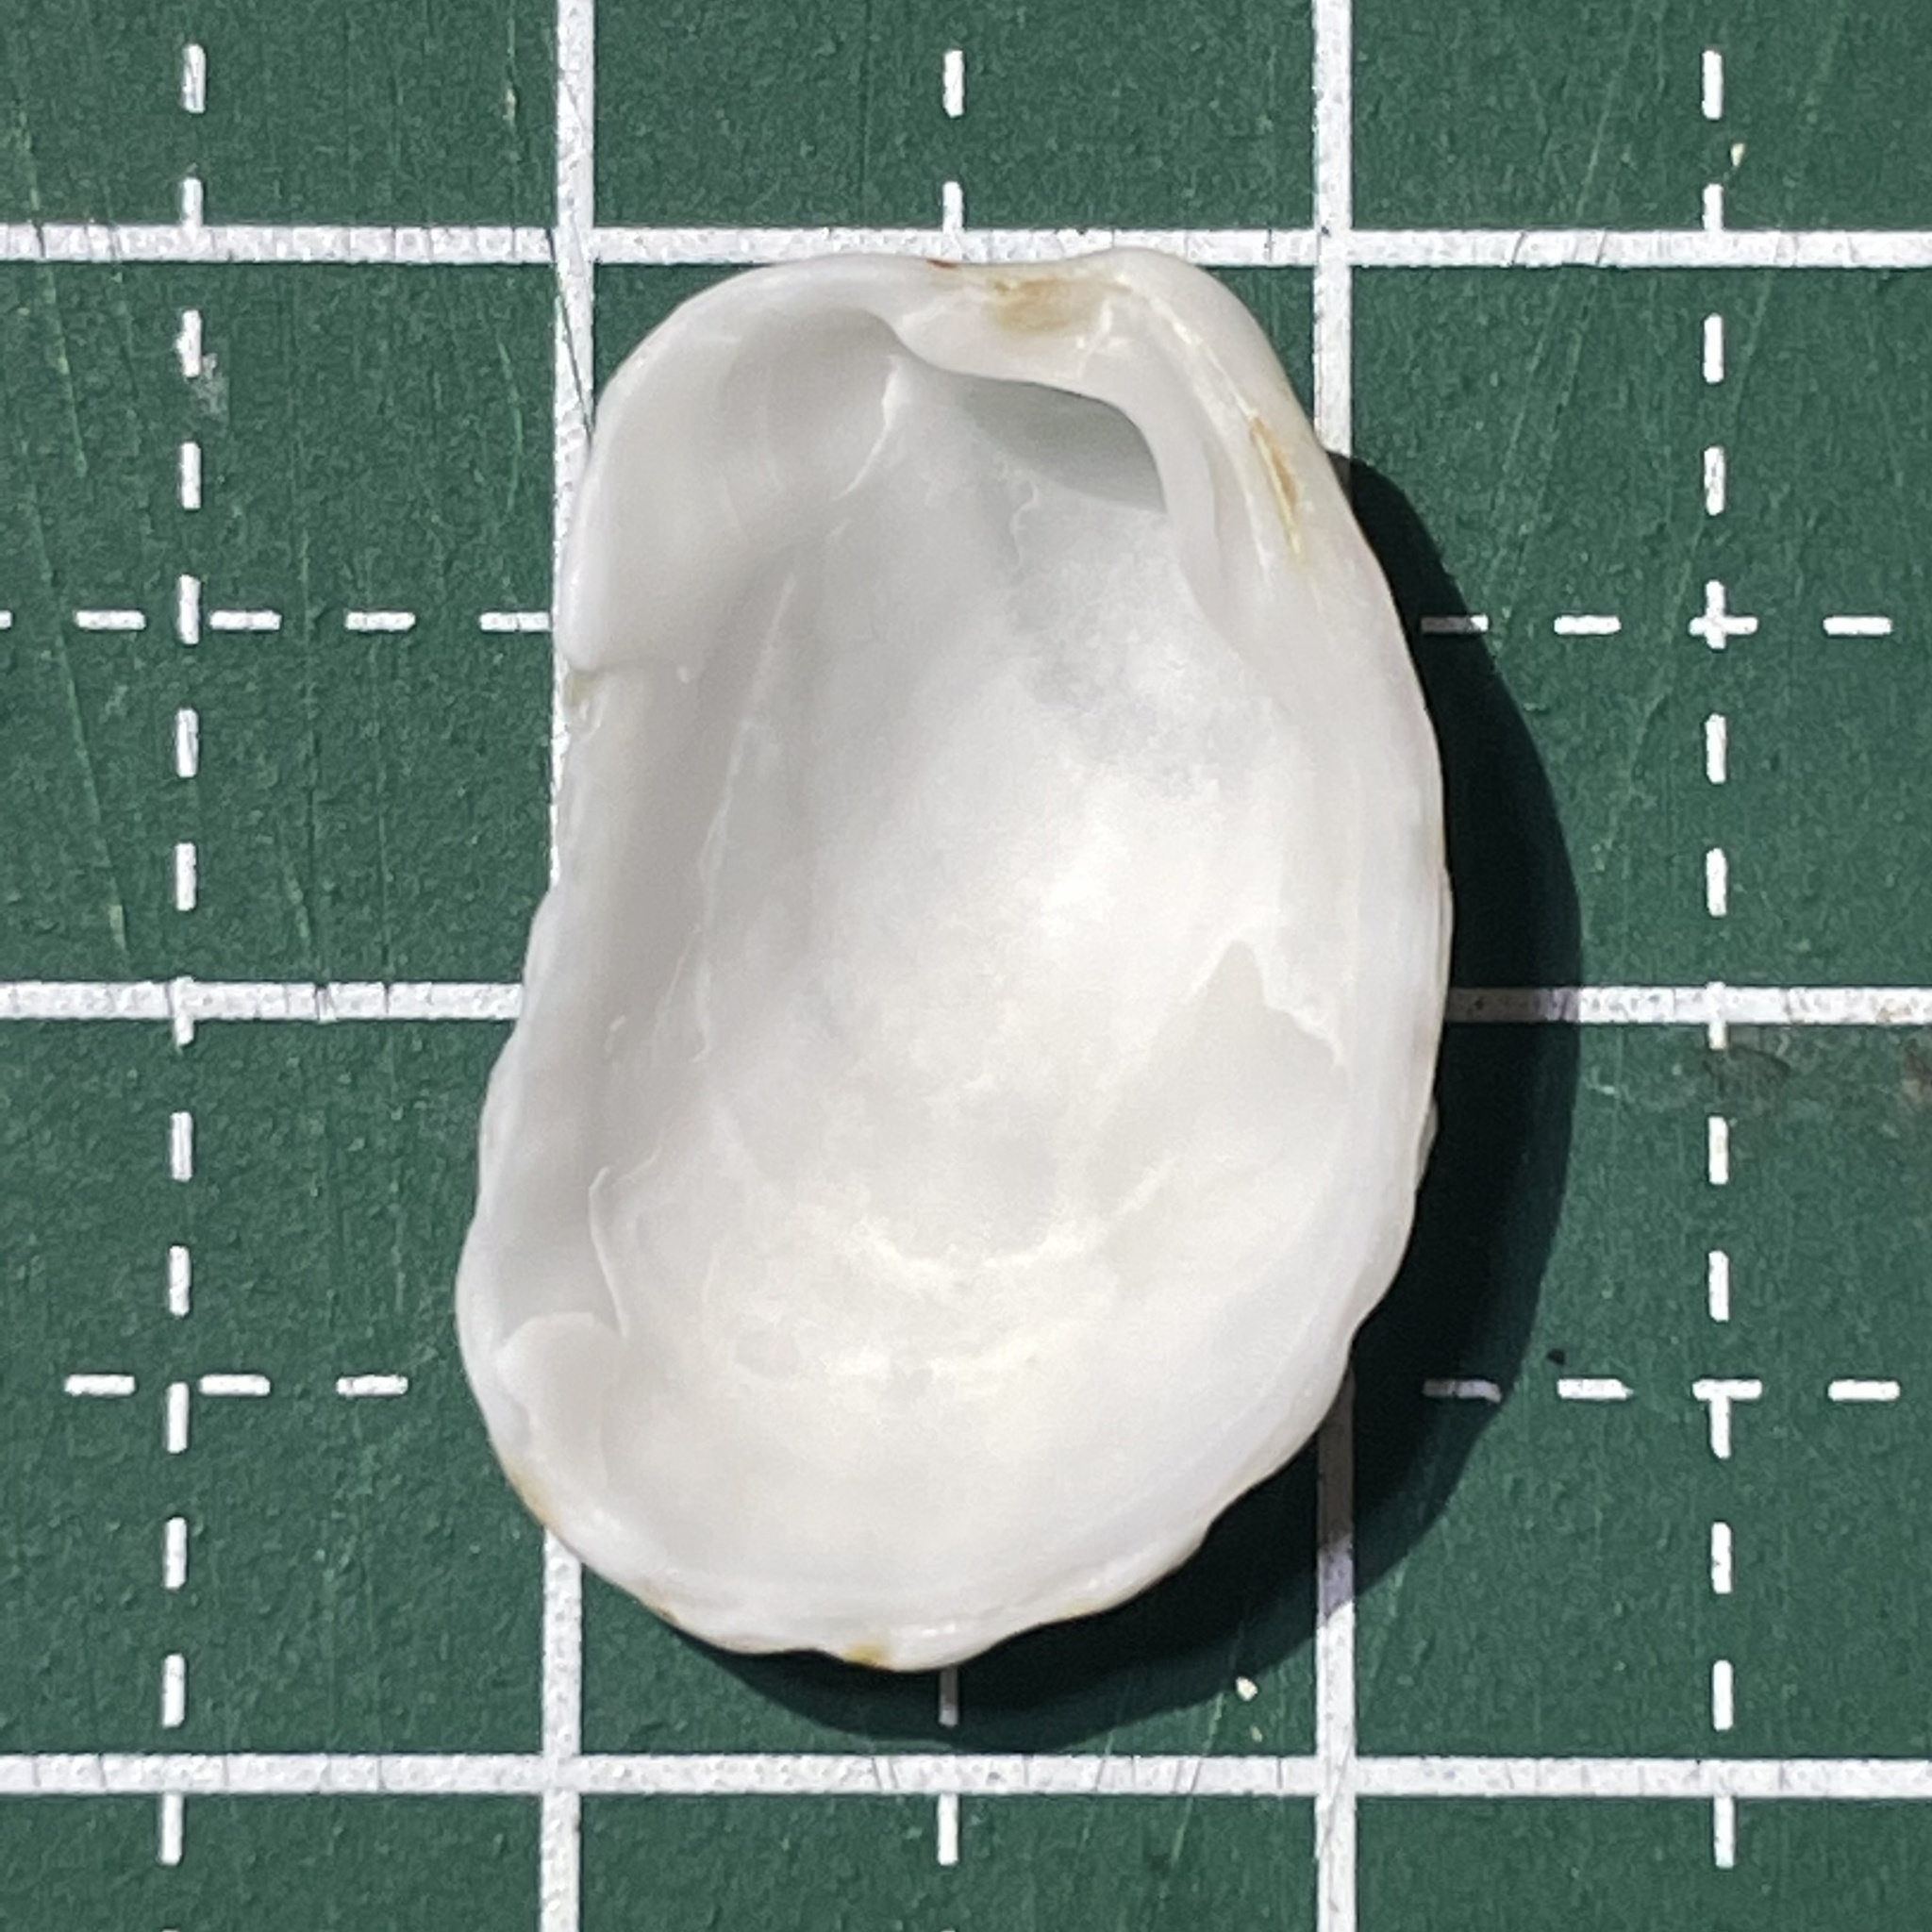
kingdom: Animalia
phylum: Mollusca
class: Bivalvia
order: Carditida
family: Carditidae
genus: Cardita
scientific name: Cardita variegata
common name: Rectangular false cockle
